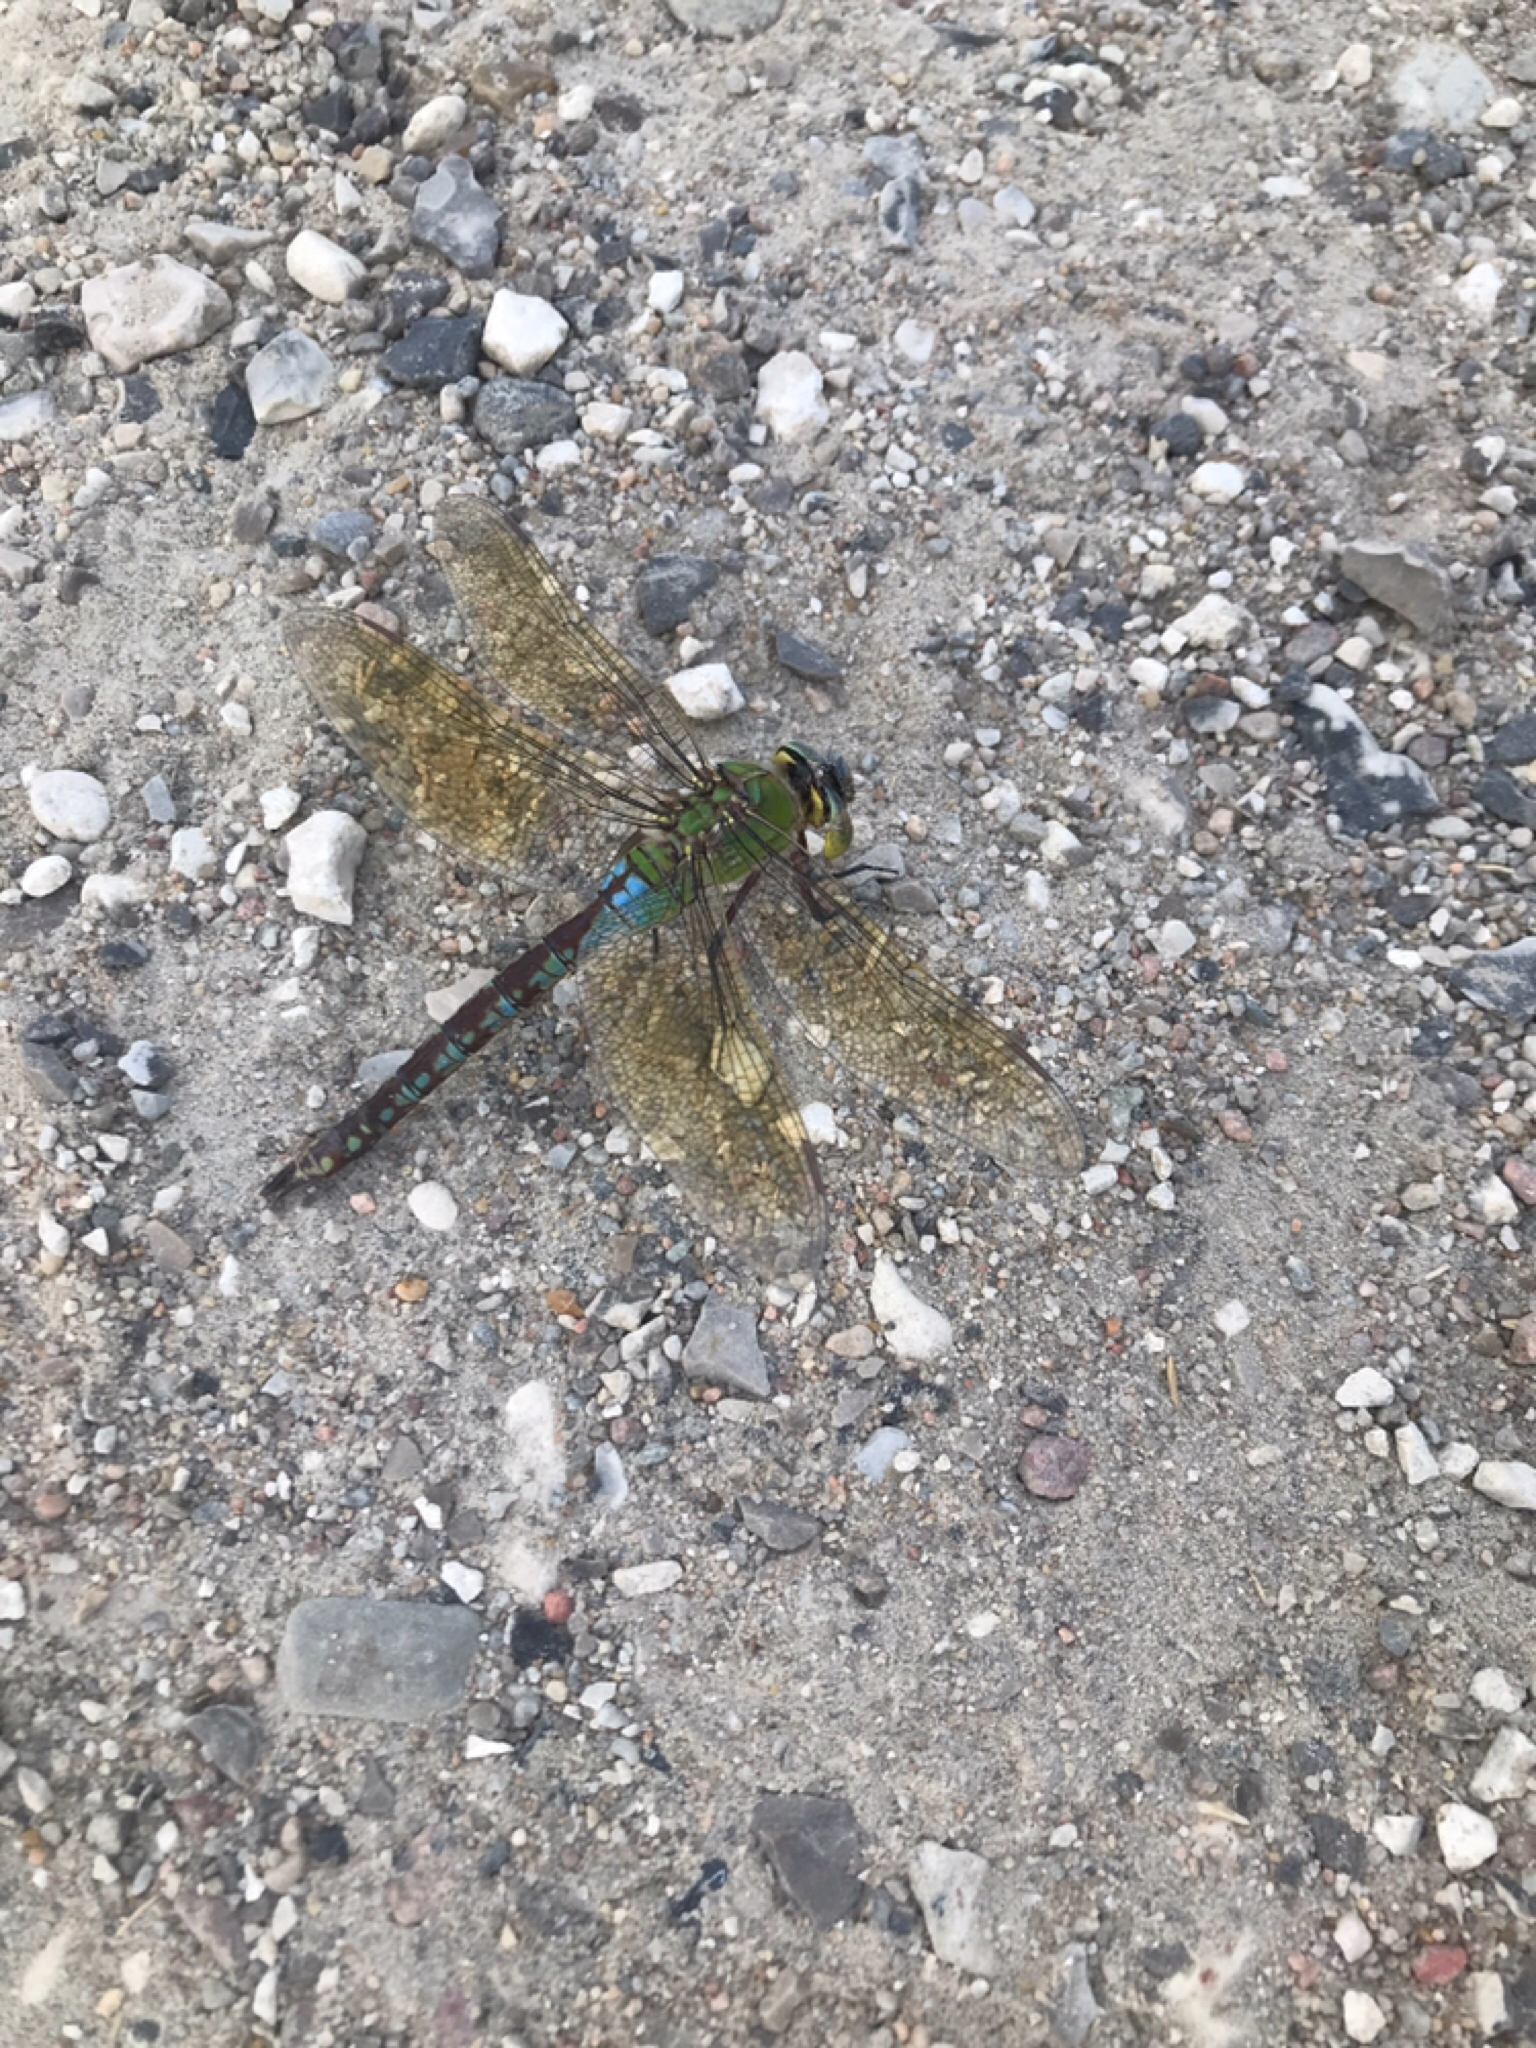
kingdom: Animalia
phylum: Arthropoda
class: Insecta
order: Odonata
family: Aeshnidae
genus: Anax
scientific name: Anax imperator
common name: Emperor dragonfly
